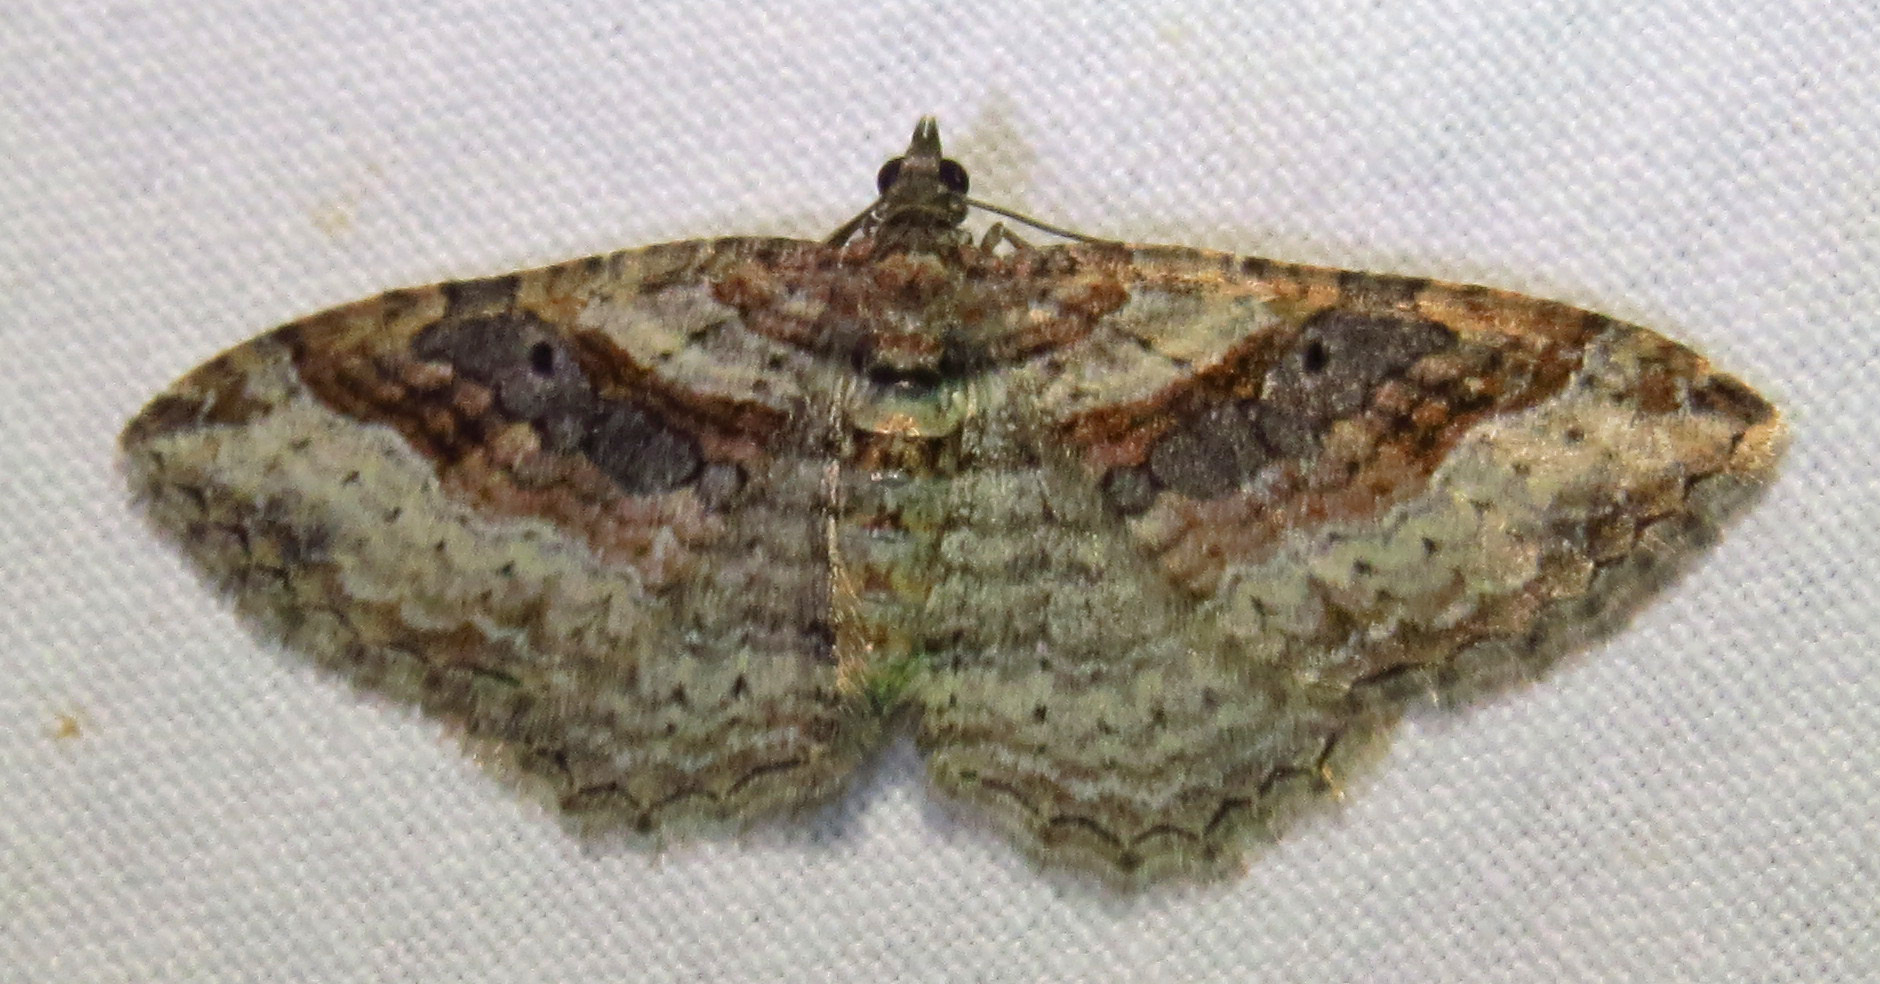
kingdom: Animalia
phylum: Arthropoda
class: Insecta
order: Lepidoptera
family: Geometridae
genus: Costaconvexa
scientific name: Costaconvexa centrostrigaria
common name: Bent-line carpet
